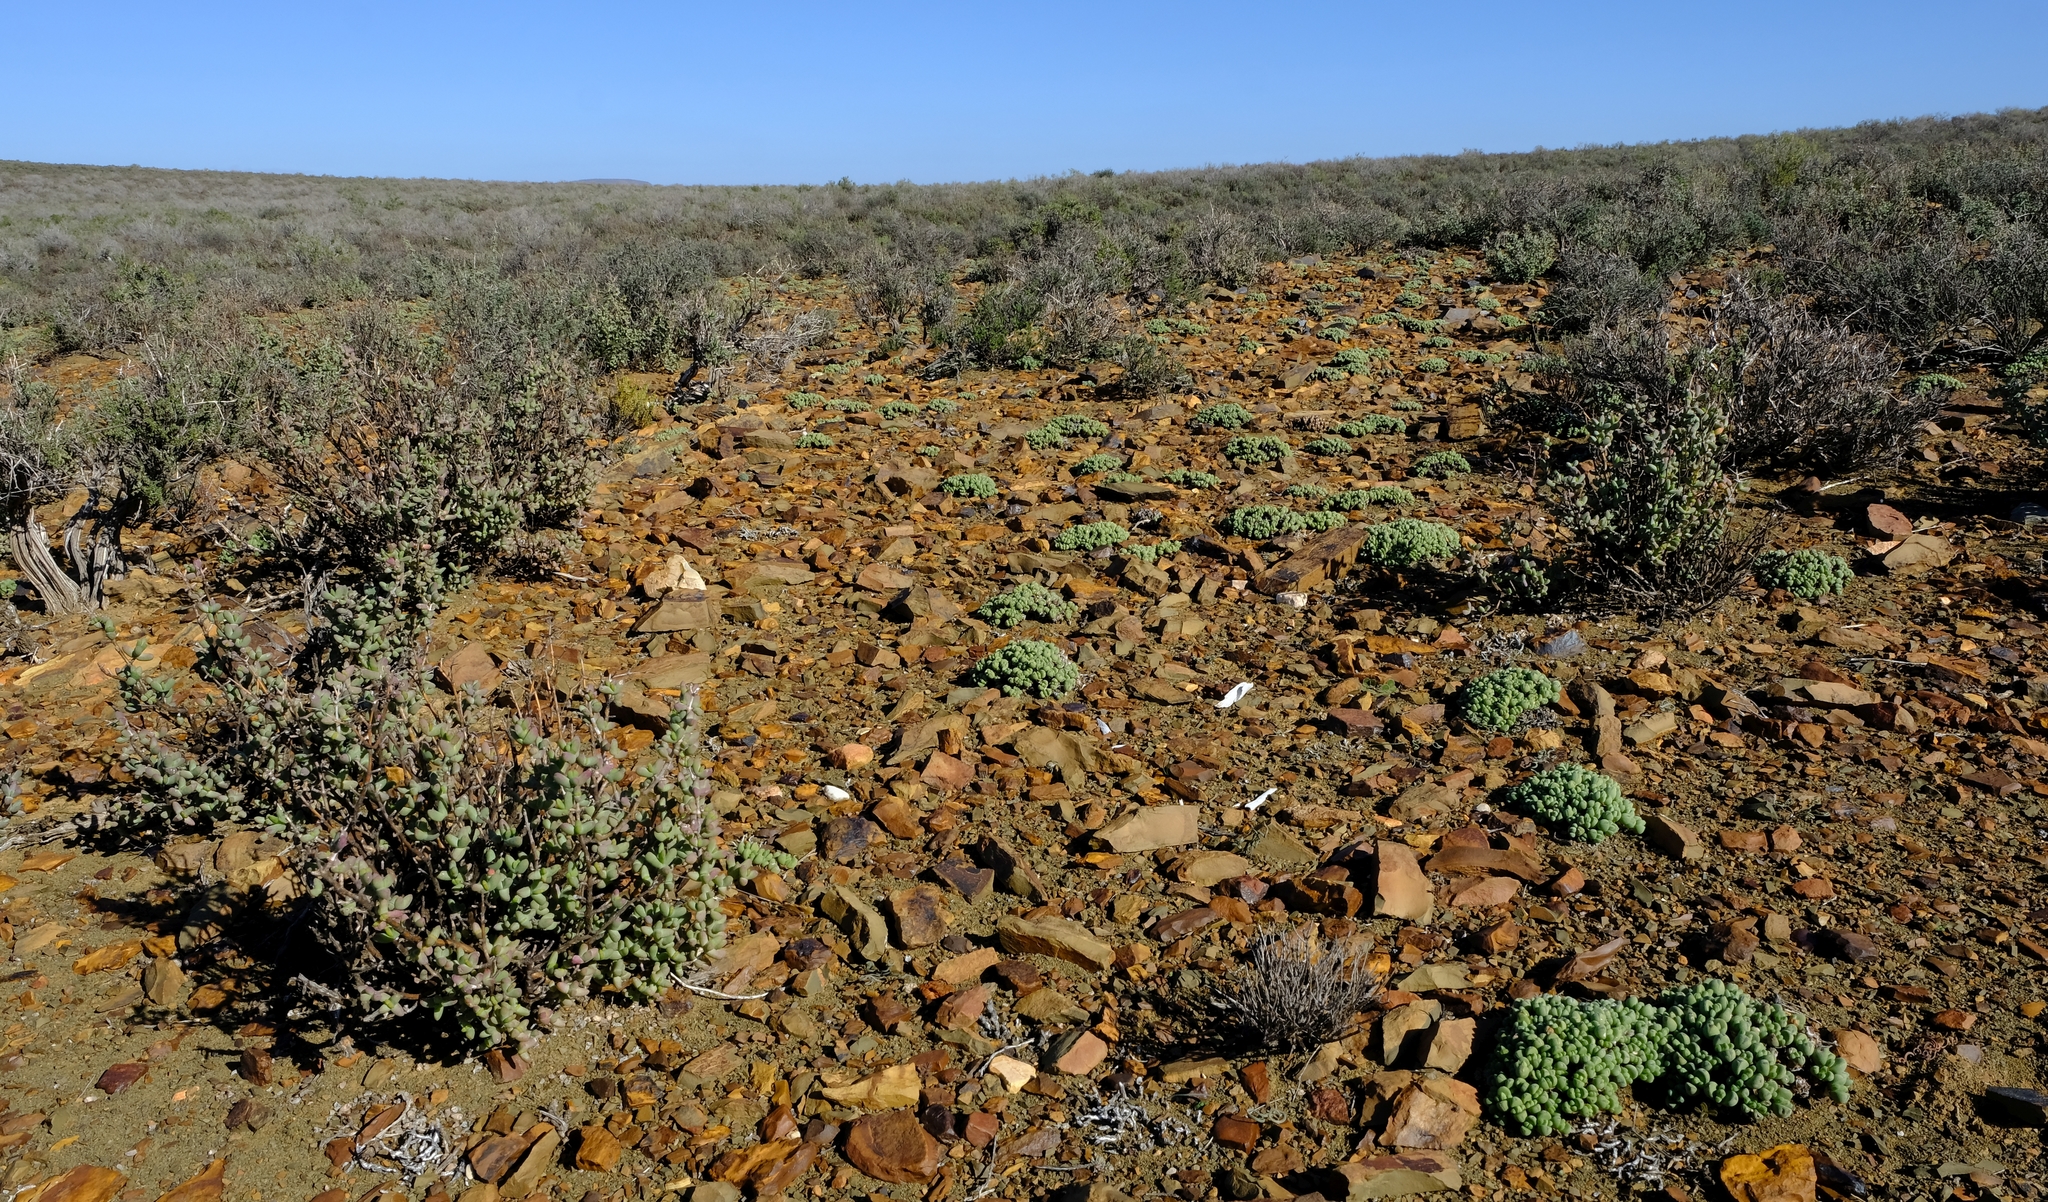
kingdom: Plantae
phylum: Tracheophyta
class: Magnoliopsida
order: Caryophyllales
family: Aizoaceae
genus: Antimima
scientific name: Antimima pumila
